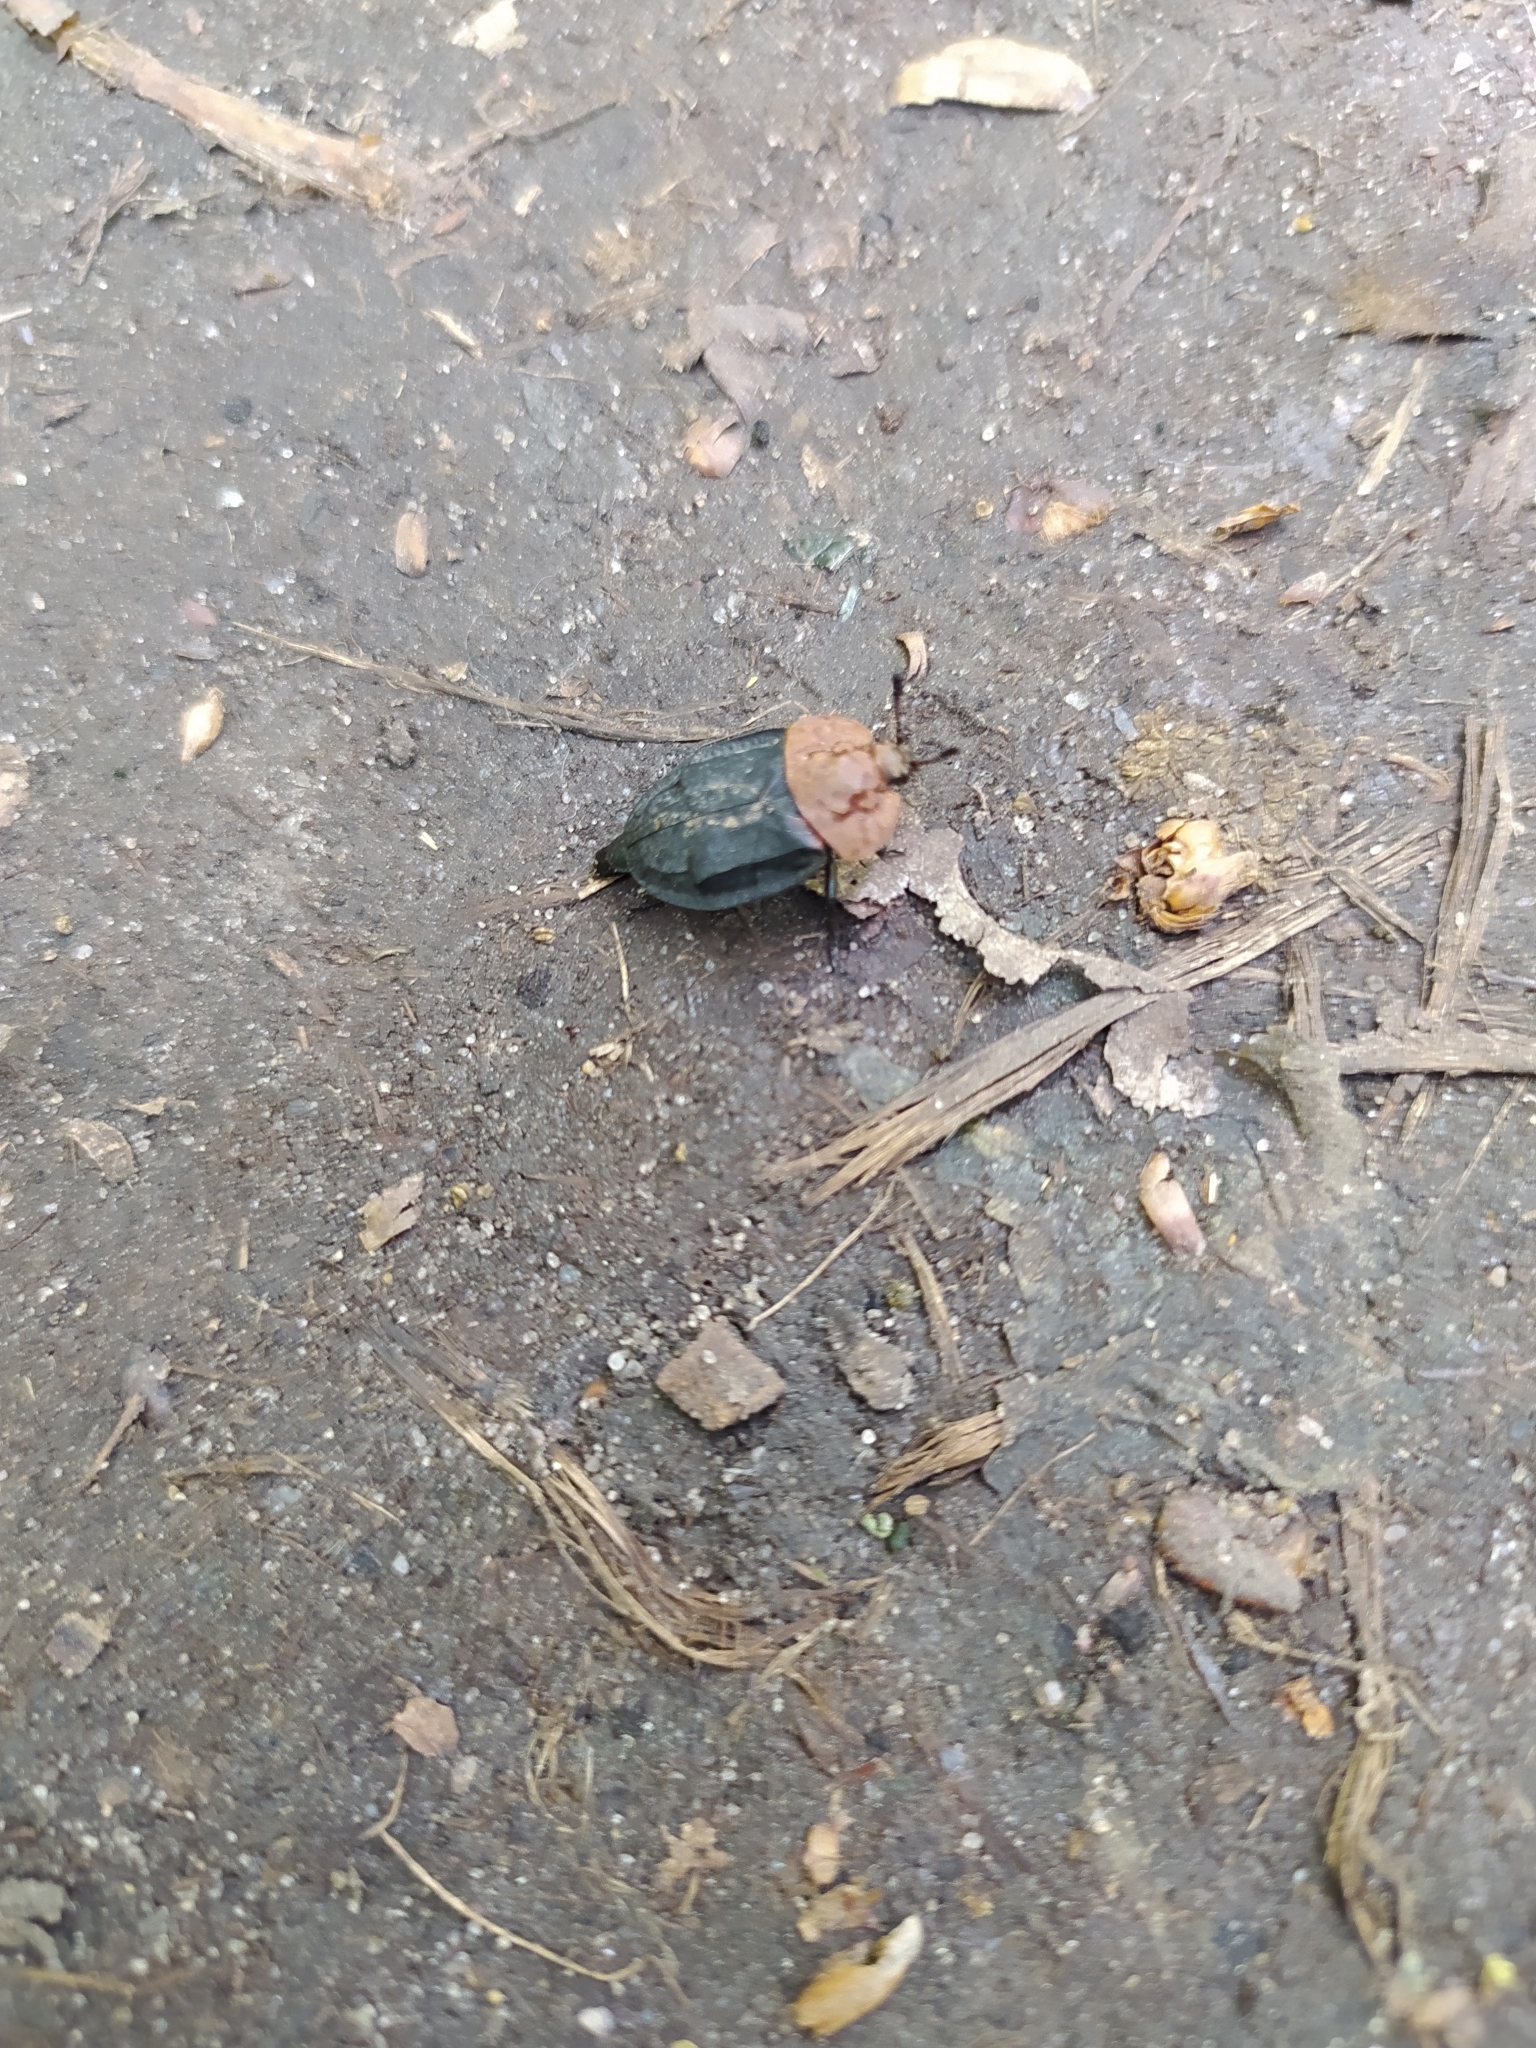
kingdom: Animalia
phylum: Arthropoda
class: Insecta
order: Coleoptera
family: Staphylinidae
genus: Oiceoptoma
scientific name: Oiceoptoma thoracicum
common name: Red-breasted carrion beetle
